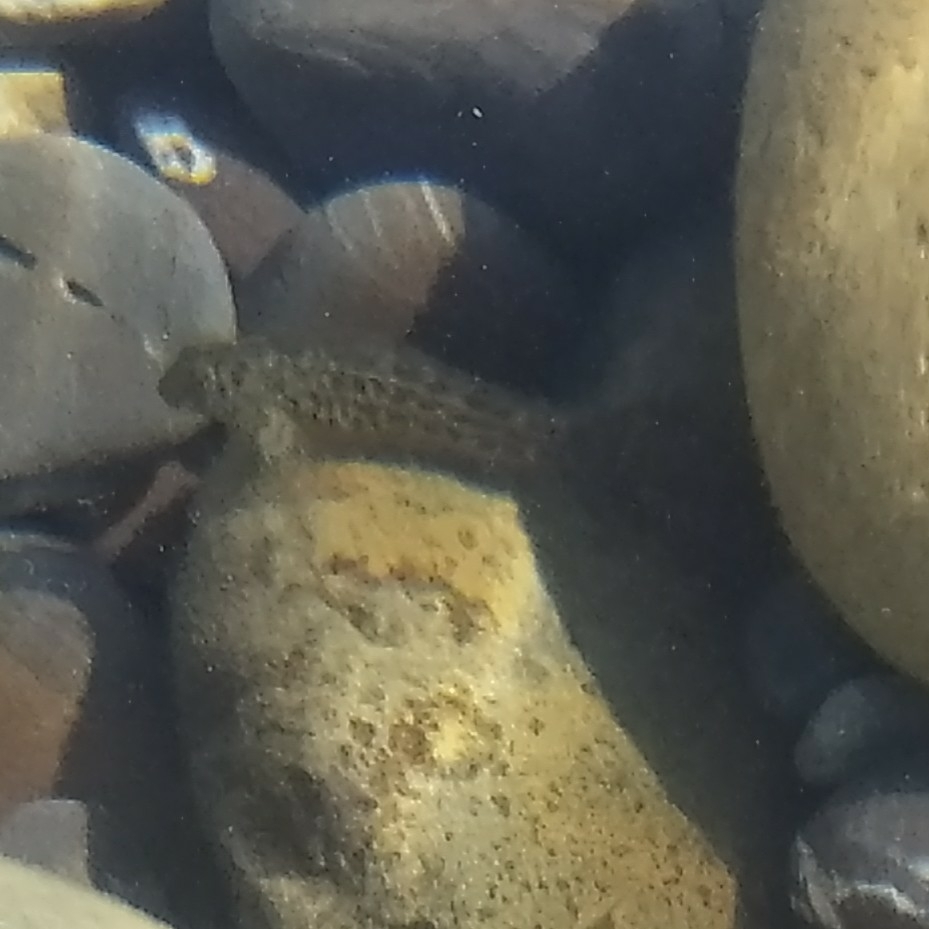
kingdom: Animalia
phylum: Chordata
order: Perciformes
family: Blenniidae
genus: Parablennius
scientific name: Parablennius sanguinolentus
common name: Black sea blenny
